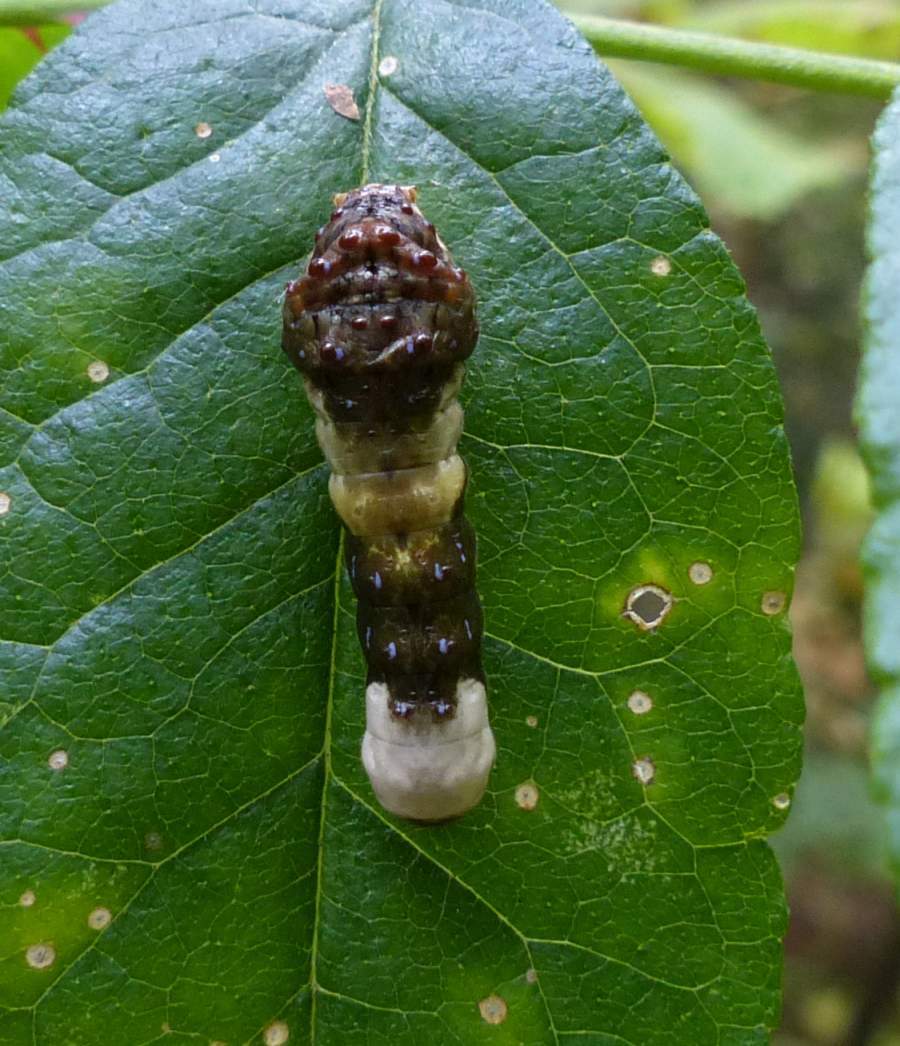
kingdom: Animalia
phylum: Arthropoda
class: Insecta
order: Lepidoptera
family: Papilionidae
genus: Papilio
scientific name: Papilio cresphontes
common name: Giant swallowtail
